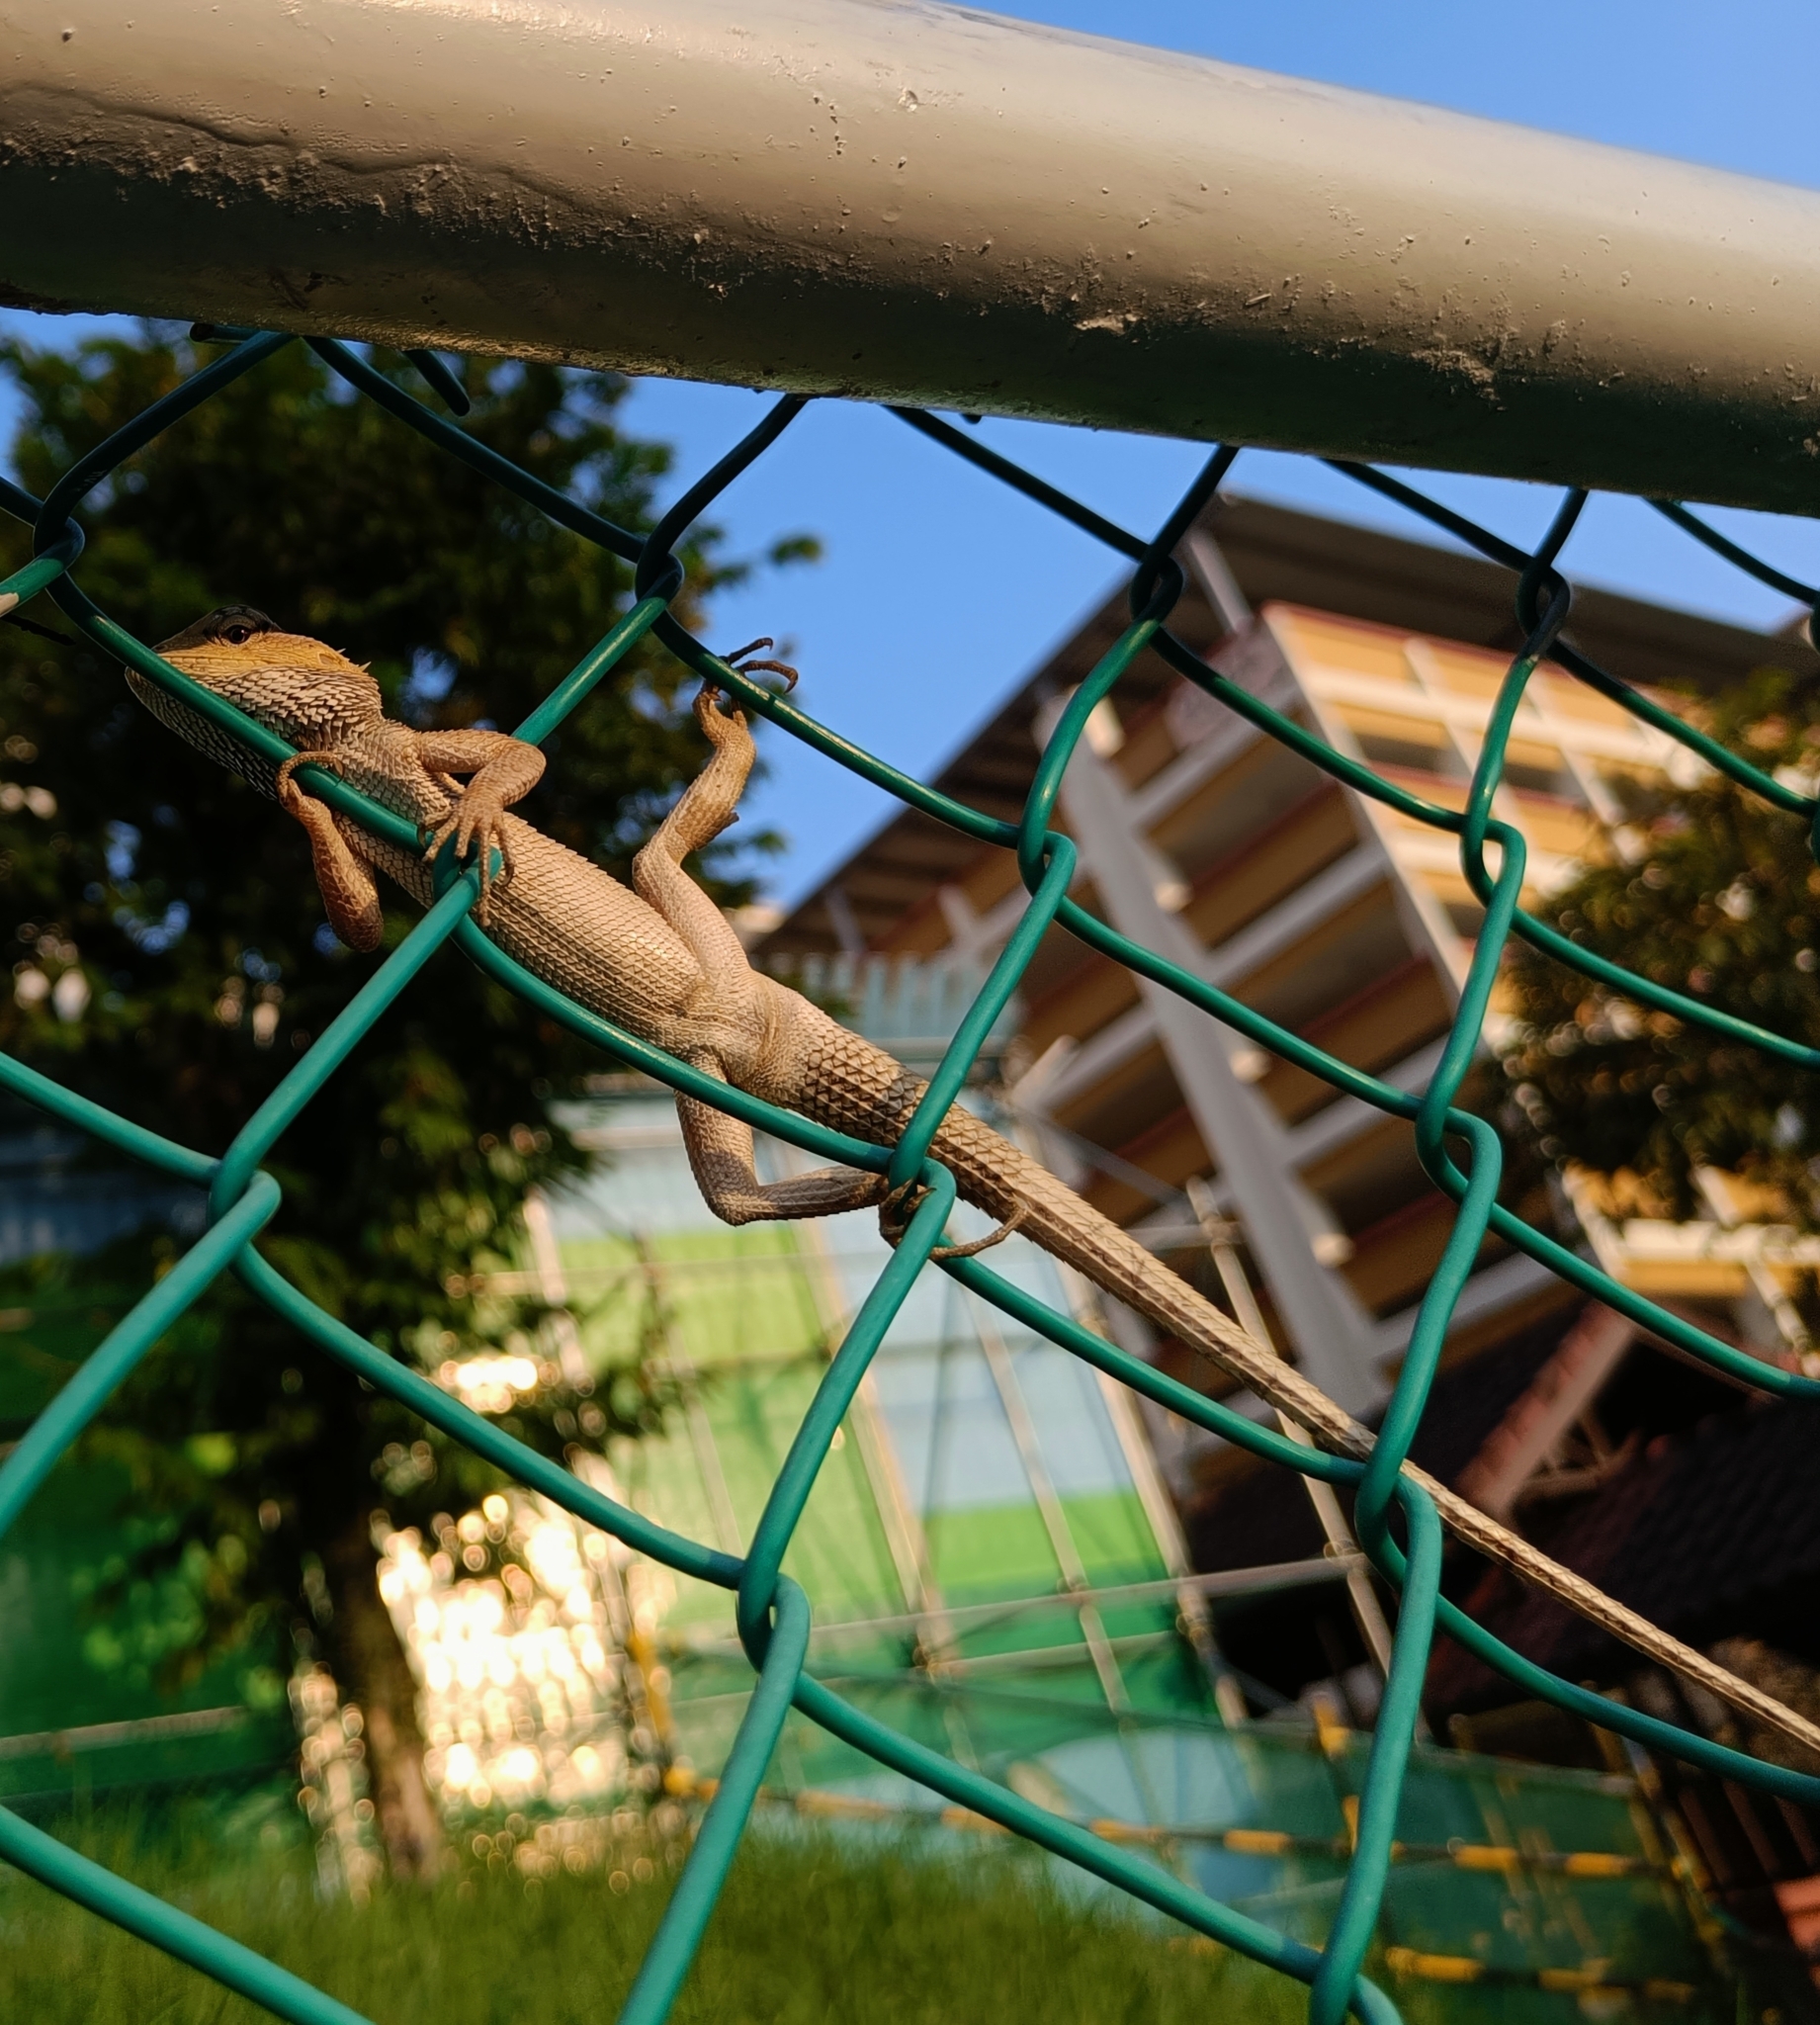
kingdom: Animalia
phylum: Chordata
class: Squamata
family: Agamidae
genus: Calotes
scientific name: Calotes versicolor
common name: Oriental garden lizard
